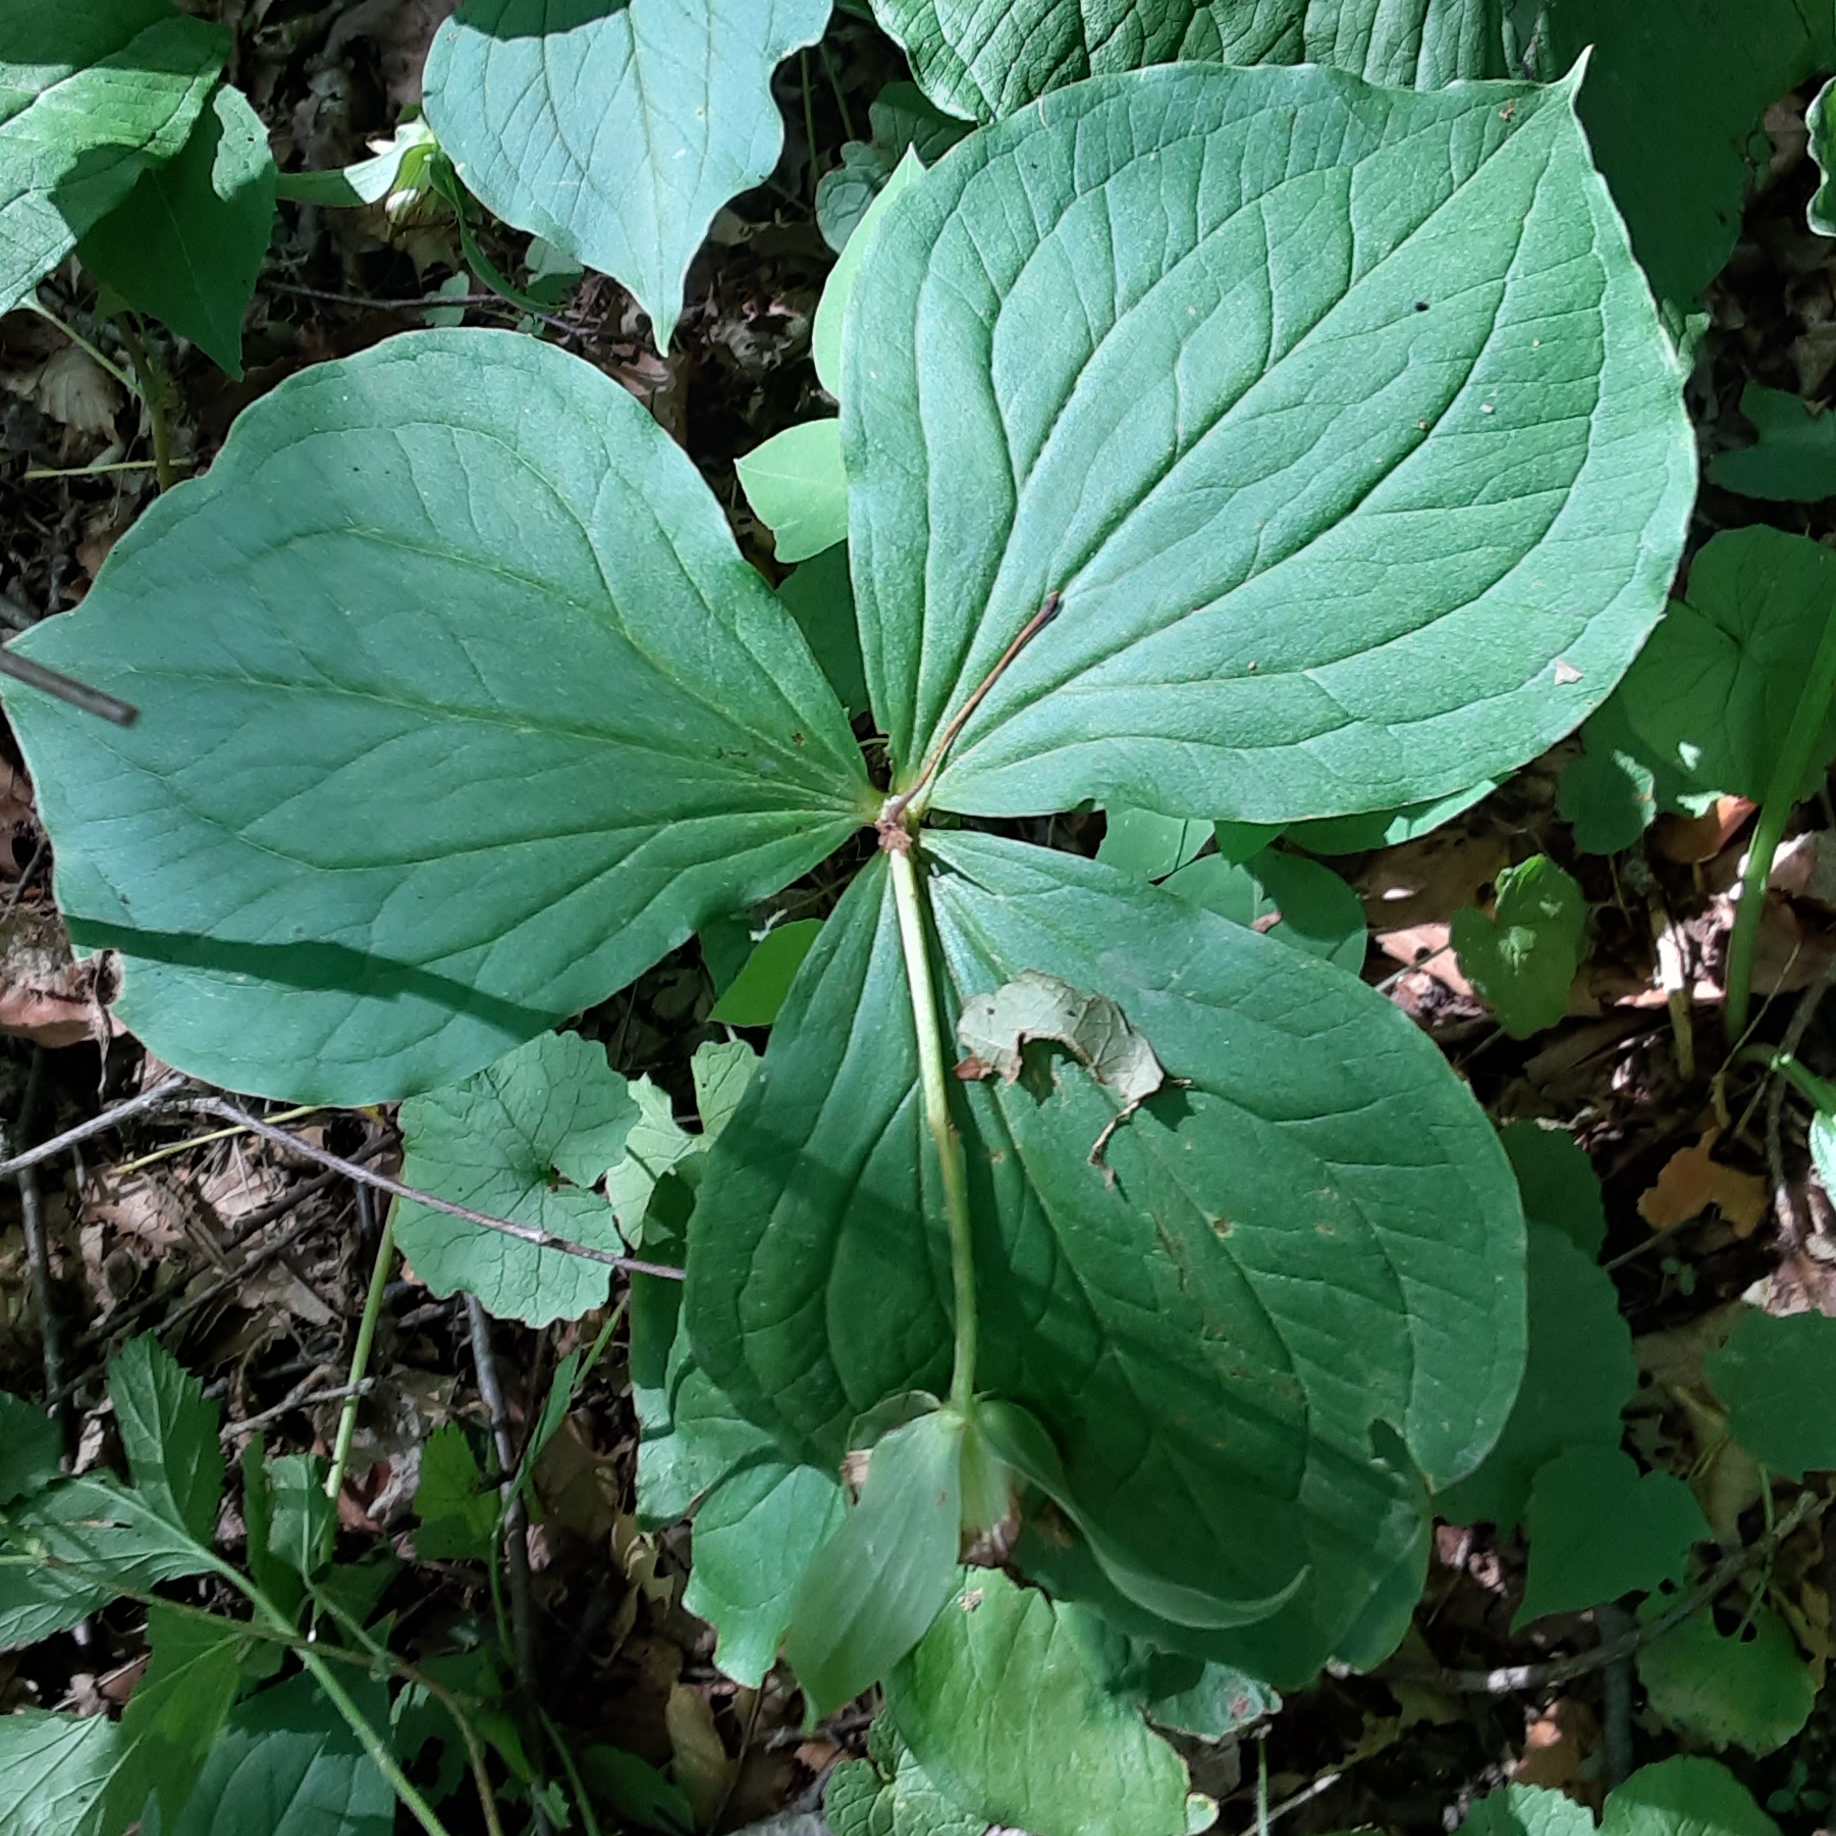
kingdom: Plantae
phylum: Tracheophyta
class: Liliopsida
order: Liliales
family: Melanthiaceae
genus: Trillium
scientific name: Trillium grandiflorum
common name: Great white trillium
